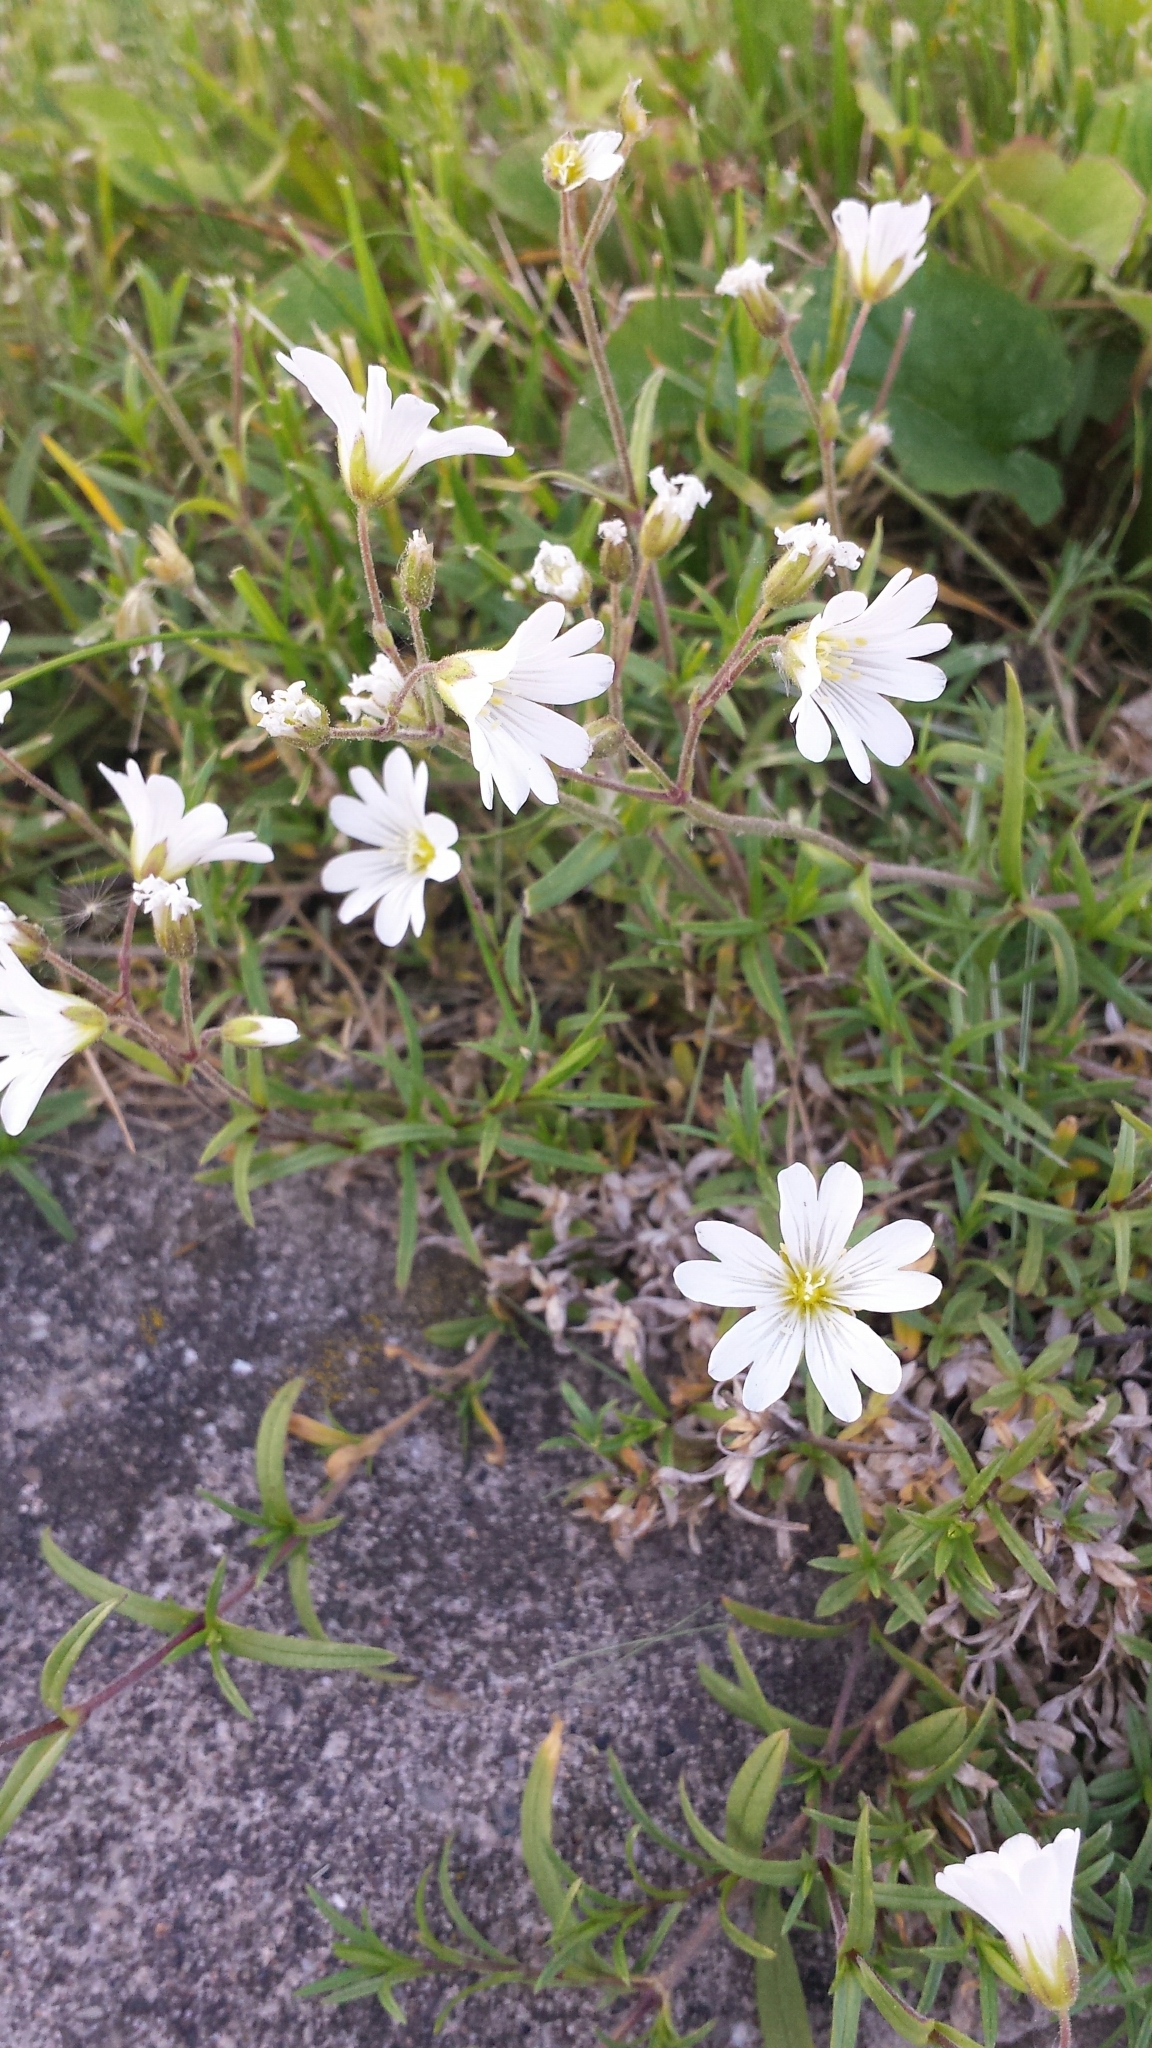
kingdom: Plantae
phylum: Tracheophyta
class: Magnoliopsida
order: Caryophyllales
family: Caryophyllaceae
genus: Cerastium
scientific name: Cerastium arvense
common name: Field mouse-ear
